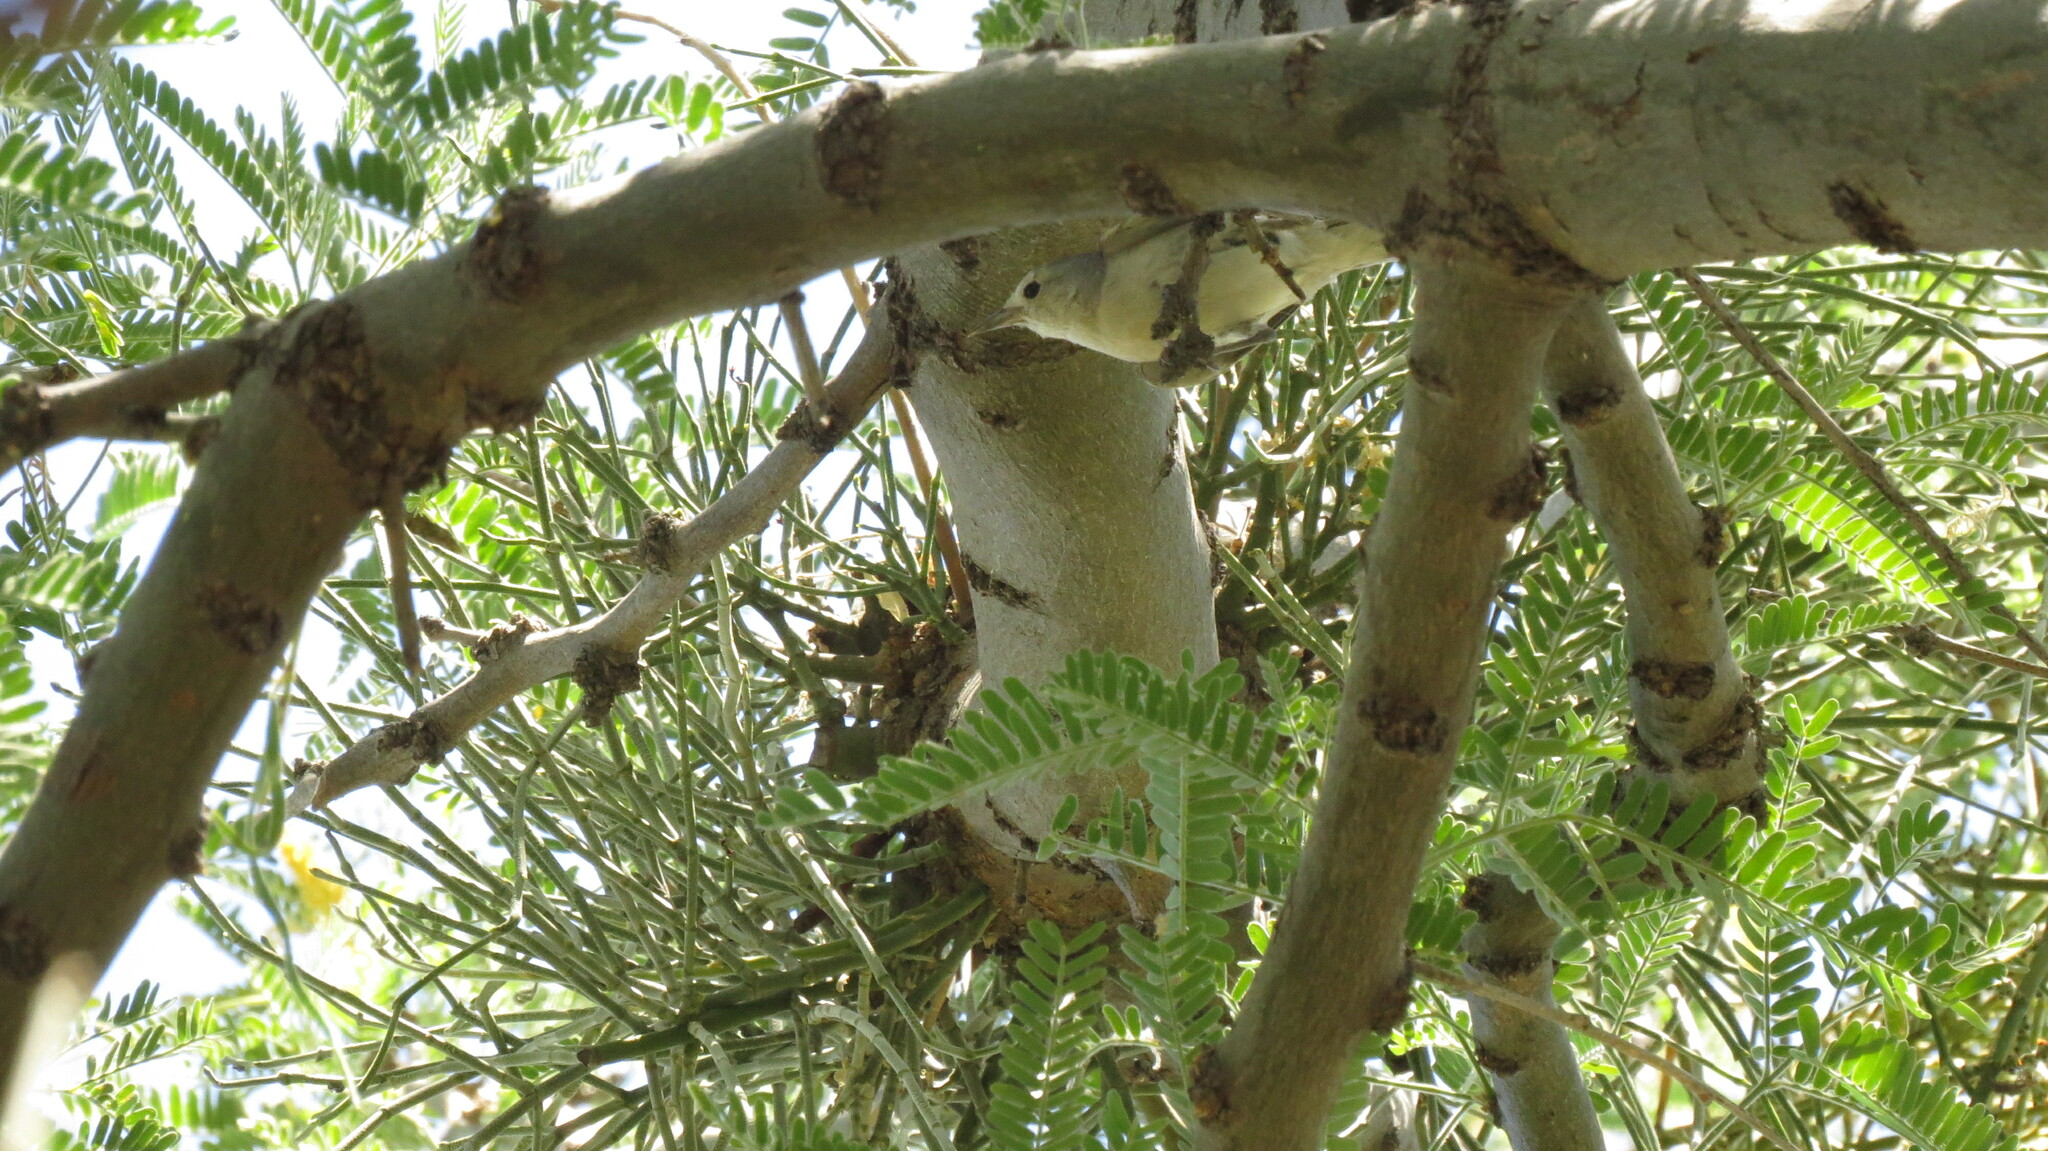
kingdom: Animalia
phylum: Chordata
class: Aves
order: Passeriformes
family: Parulidae
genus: Leiothlypis
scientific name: Leiothlypis luciae
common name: Lucy's warbler
